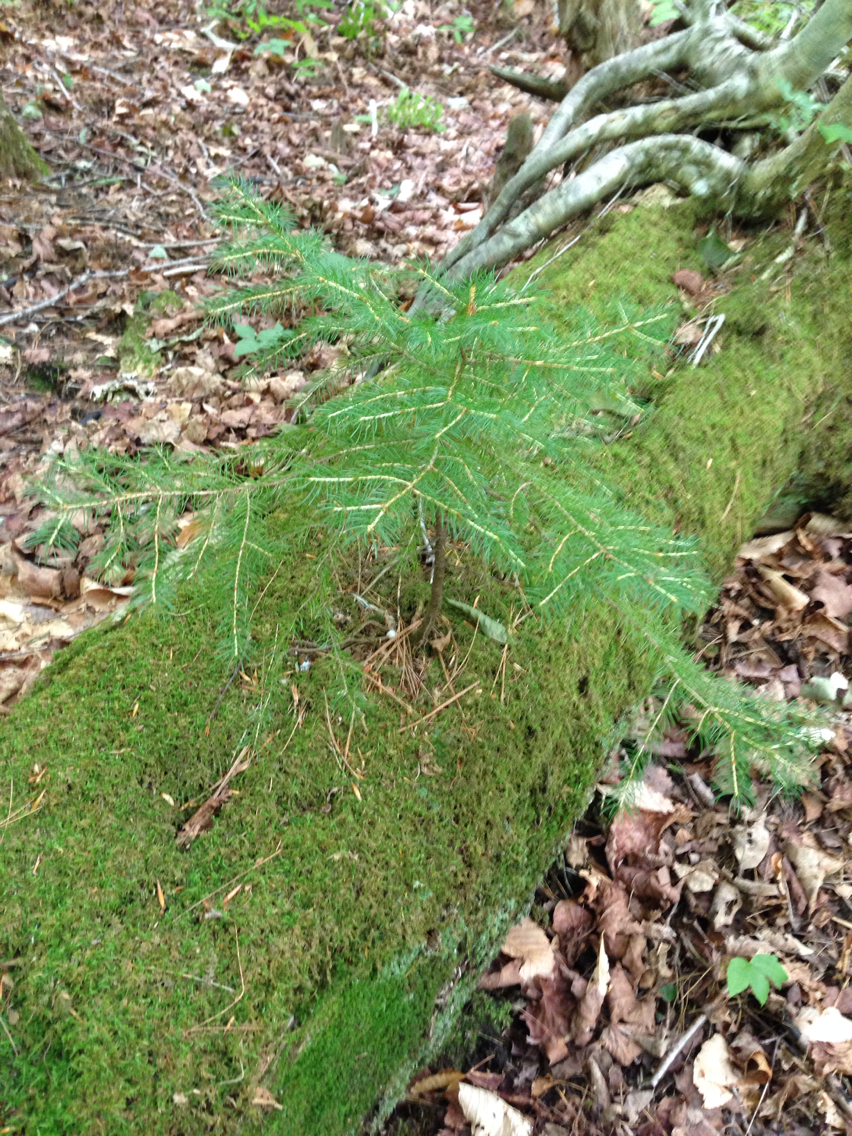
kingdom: Plantae
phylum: Tracheophyta
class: Pinopsida
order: Pinales
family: Pinaceae
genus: Picea
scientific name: Picea rubens
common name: Red spruce
